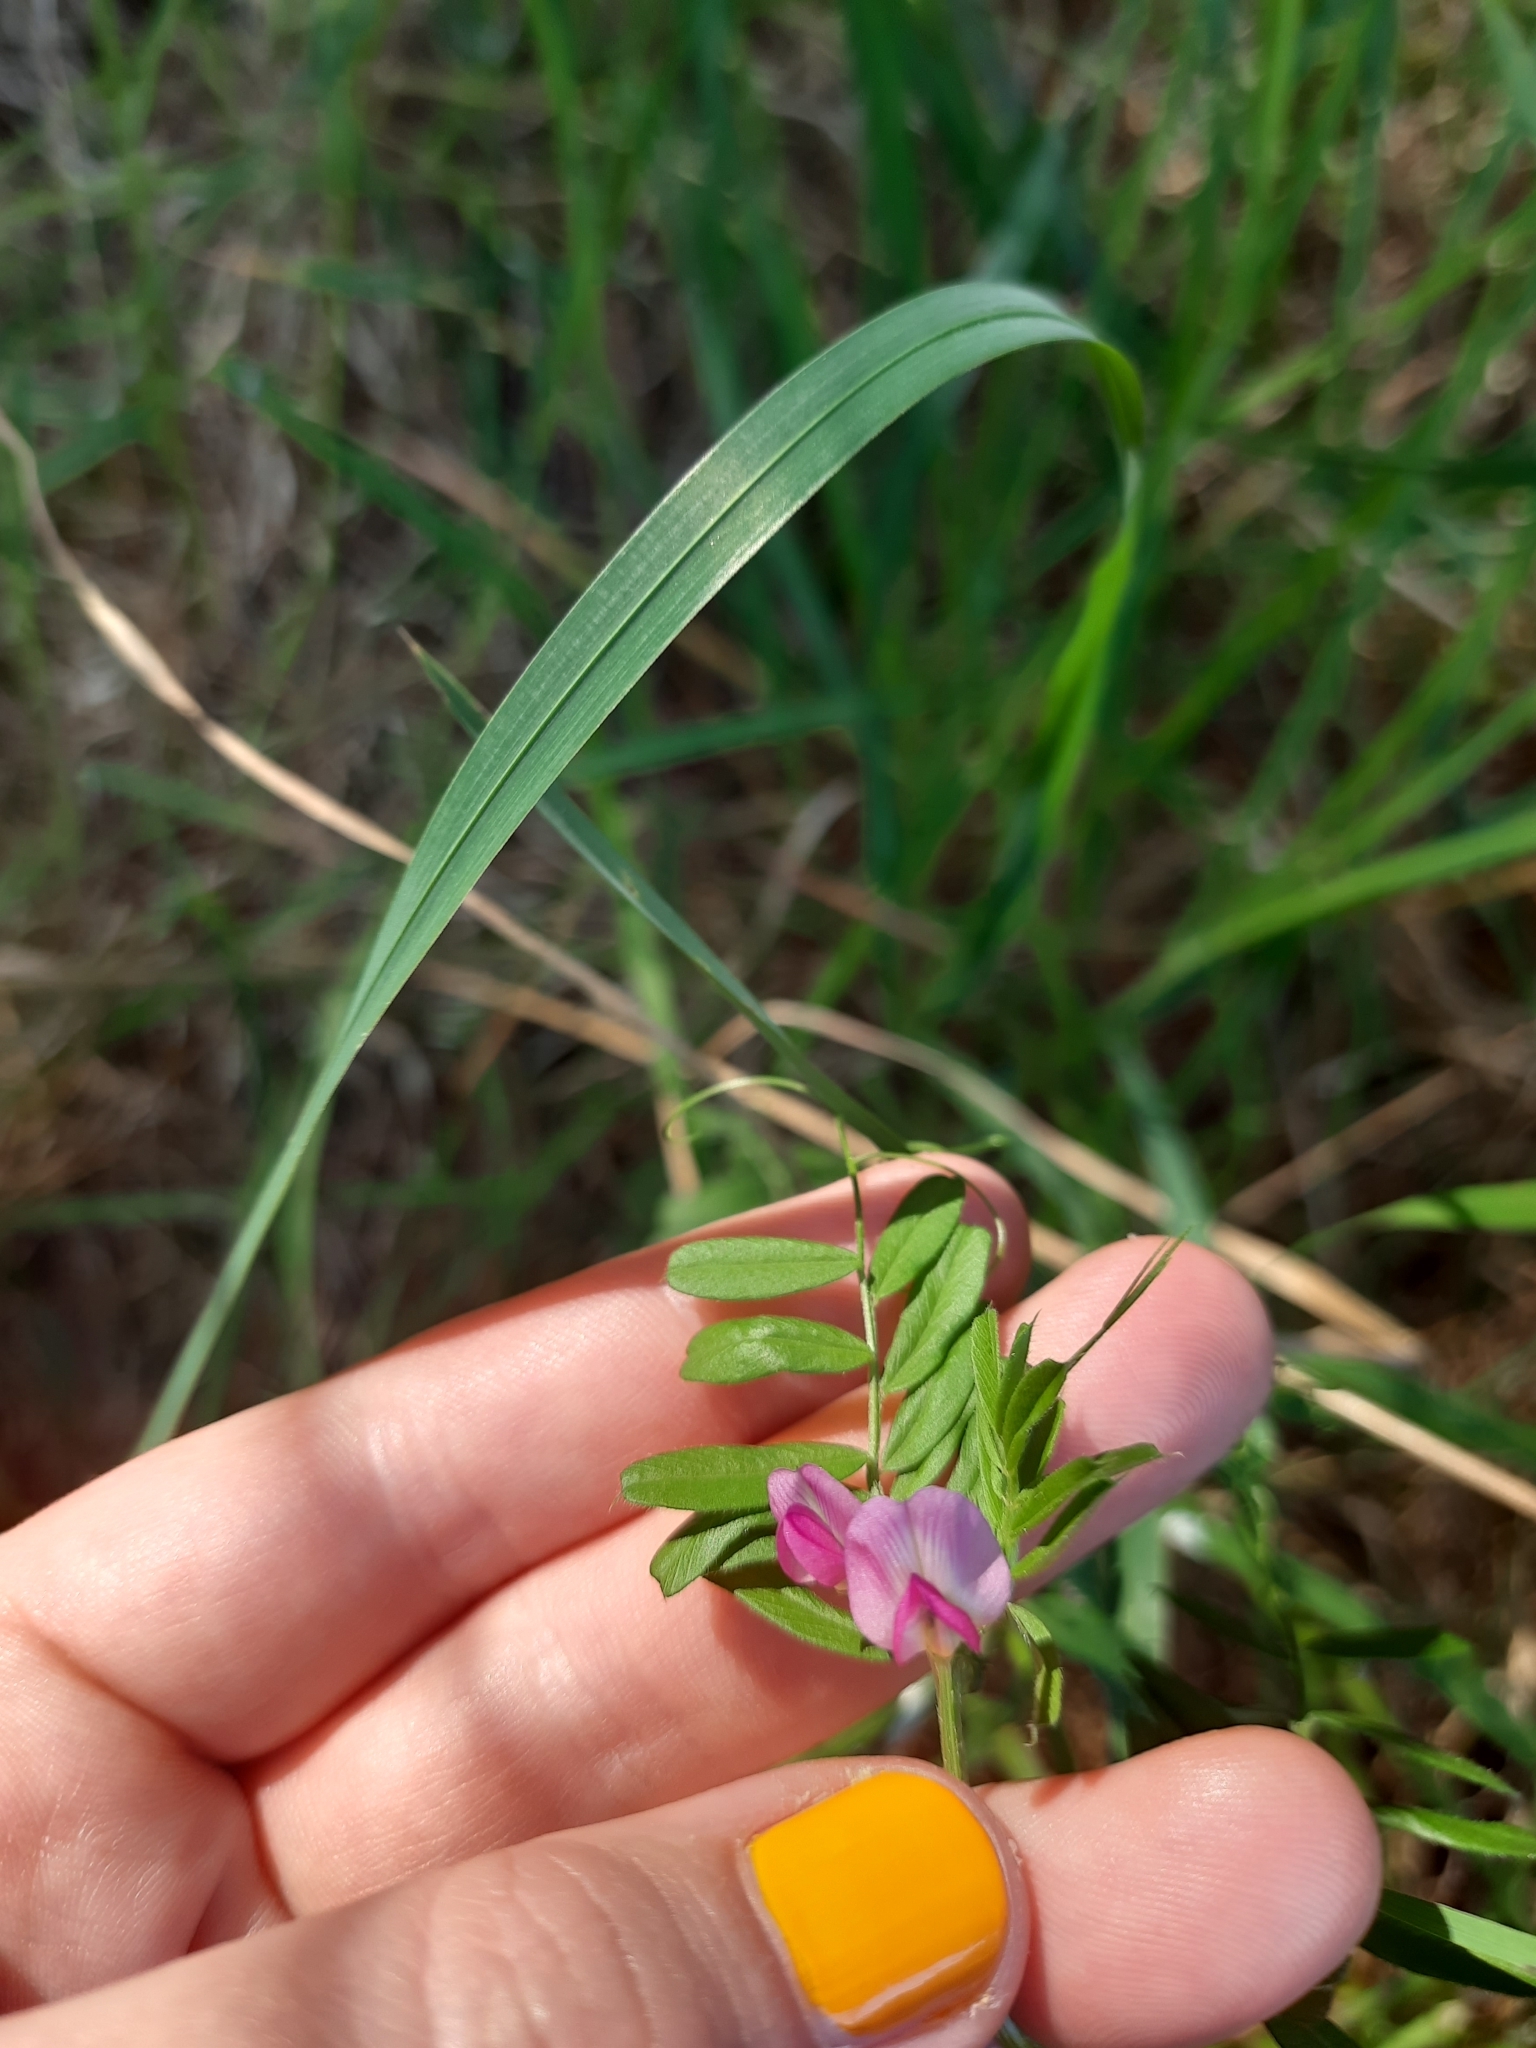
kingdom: Plantae
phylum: Tracheophyta
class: Magnoliopsida
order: Fabales
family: Fabaceae
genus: Vicia
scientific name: Vicia sativa
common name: Garden vetch
